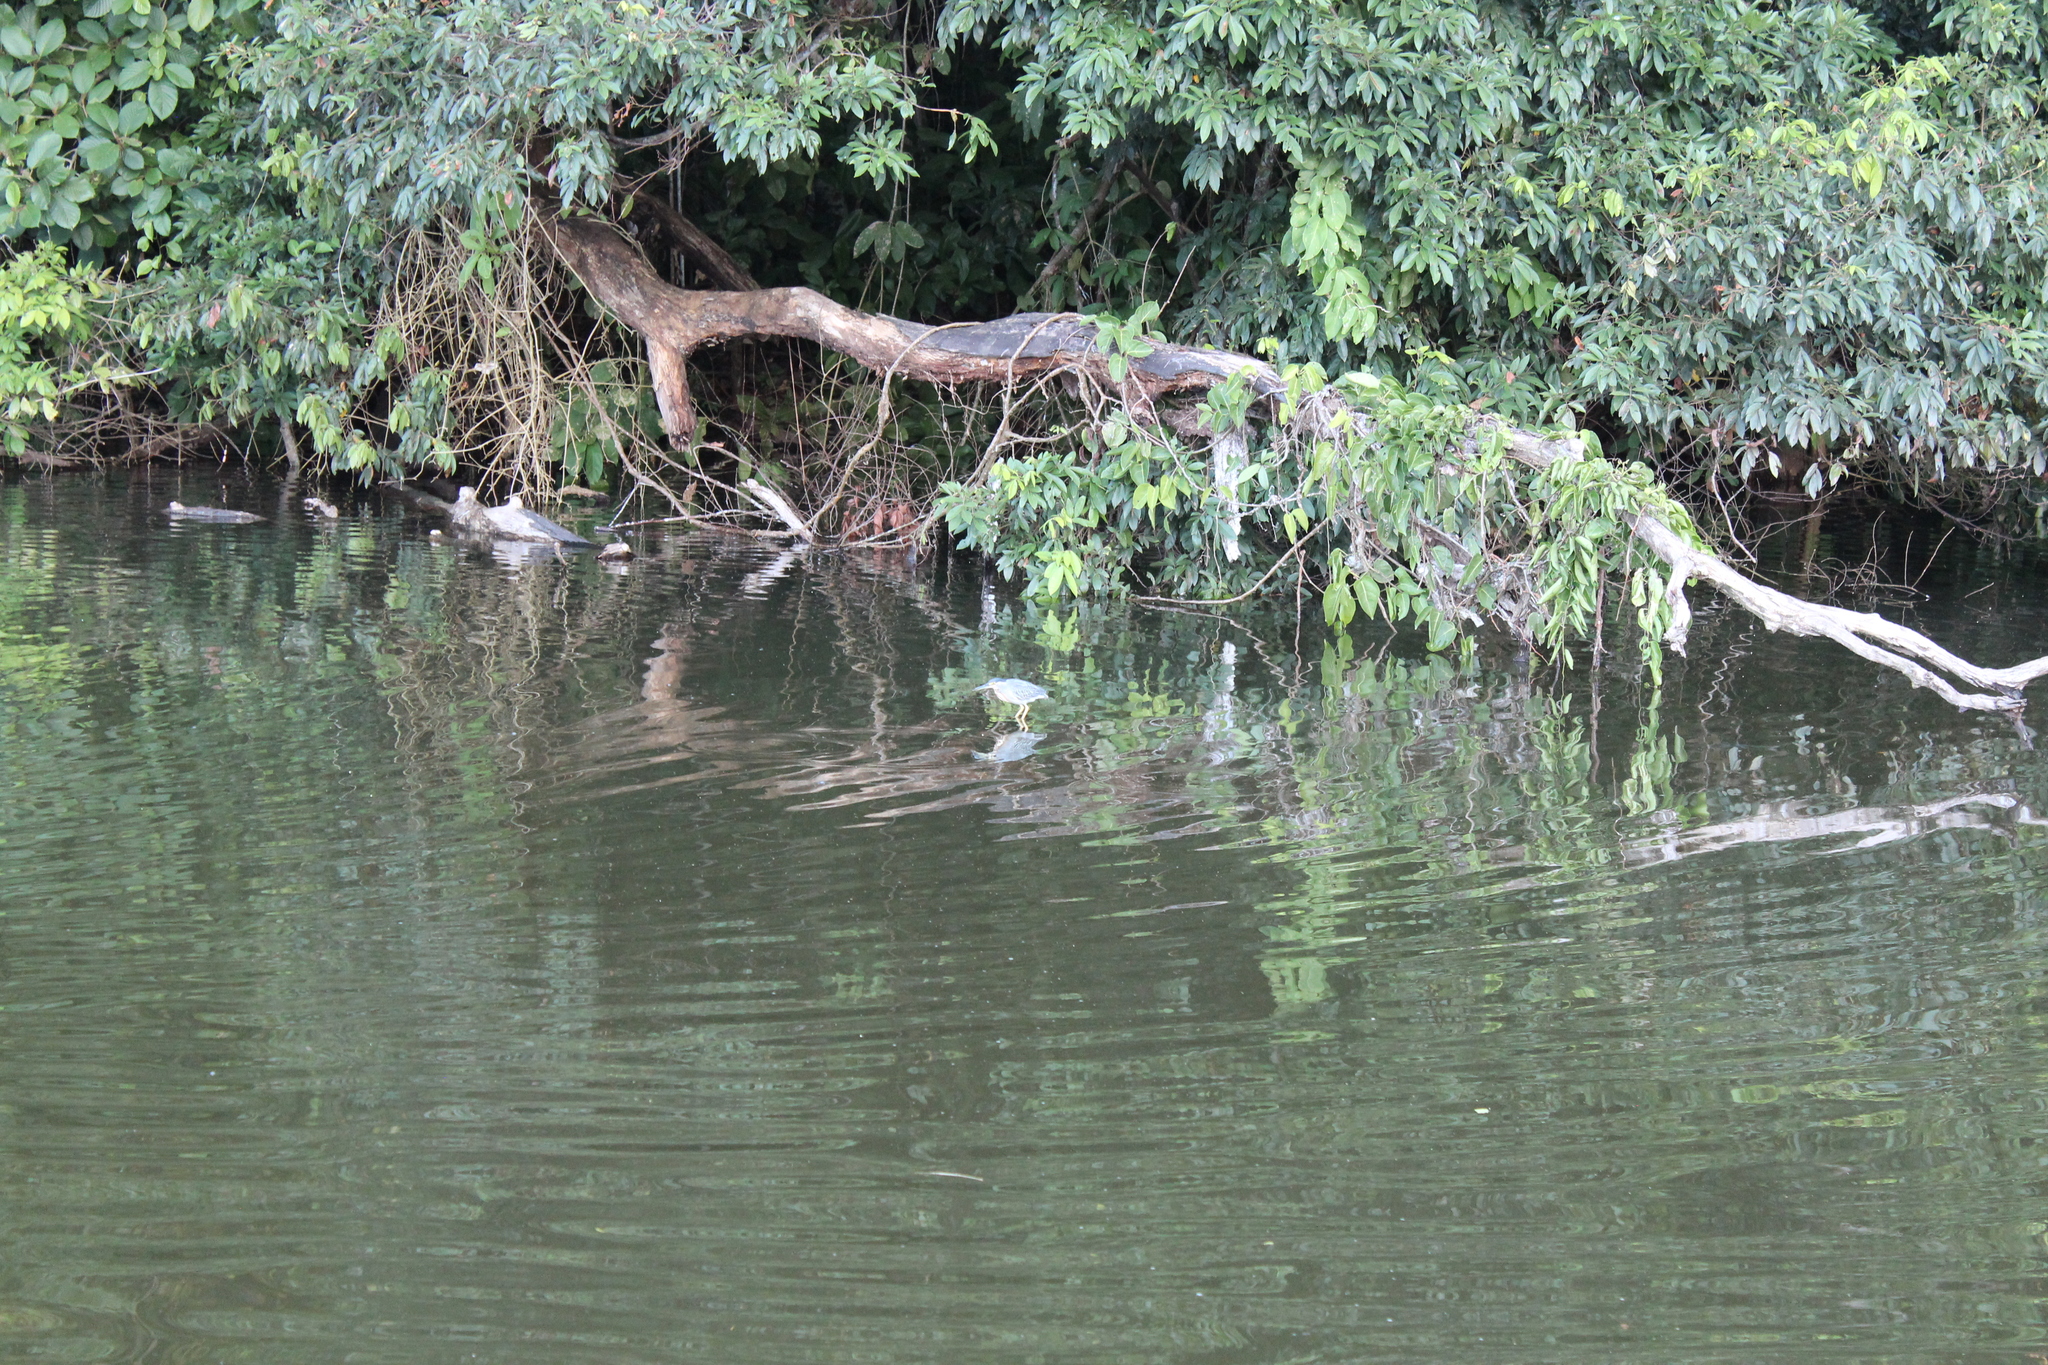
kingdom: Animalia
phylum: Chordata
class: Aves
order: Pelecaniformes
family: Ardeidae
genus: Butorides
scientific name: Butorides striata
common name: Striated heron
